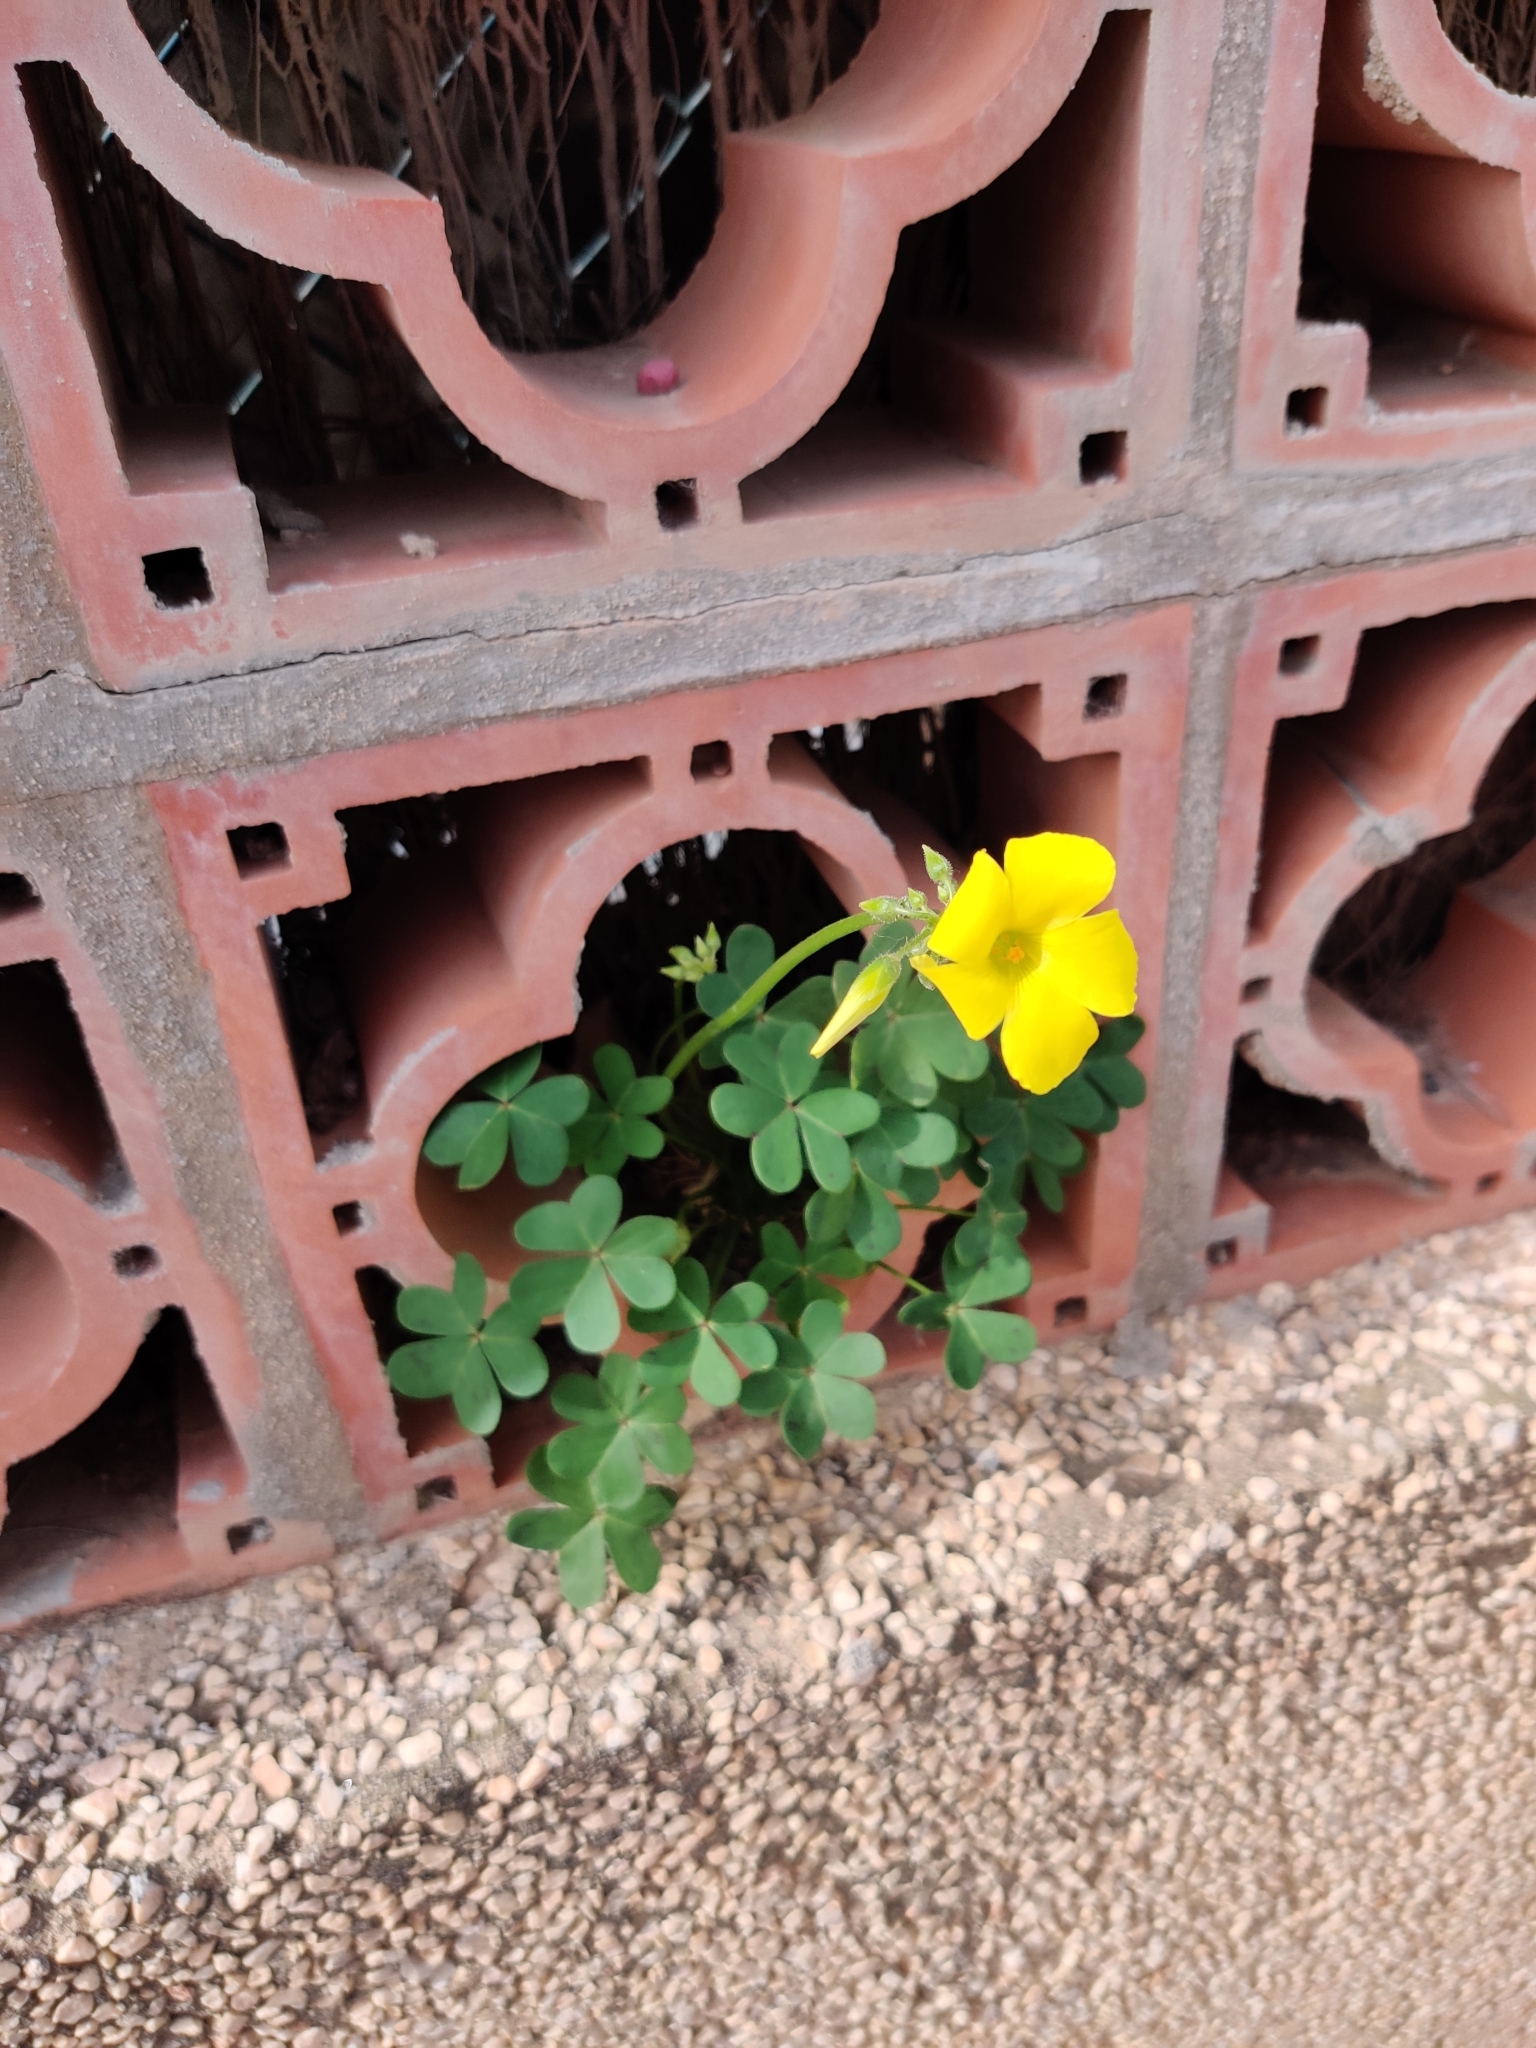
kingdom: Plantae
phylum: Tracheophyta
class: Magnoliopsida
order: Oxalidales
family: Oxalidaceae
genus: Oxalis
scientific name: Oxalis pes-caprae
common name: Bermuda-buttercup
